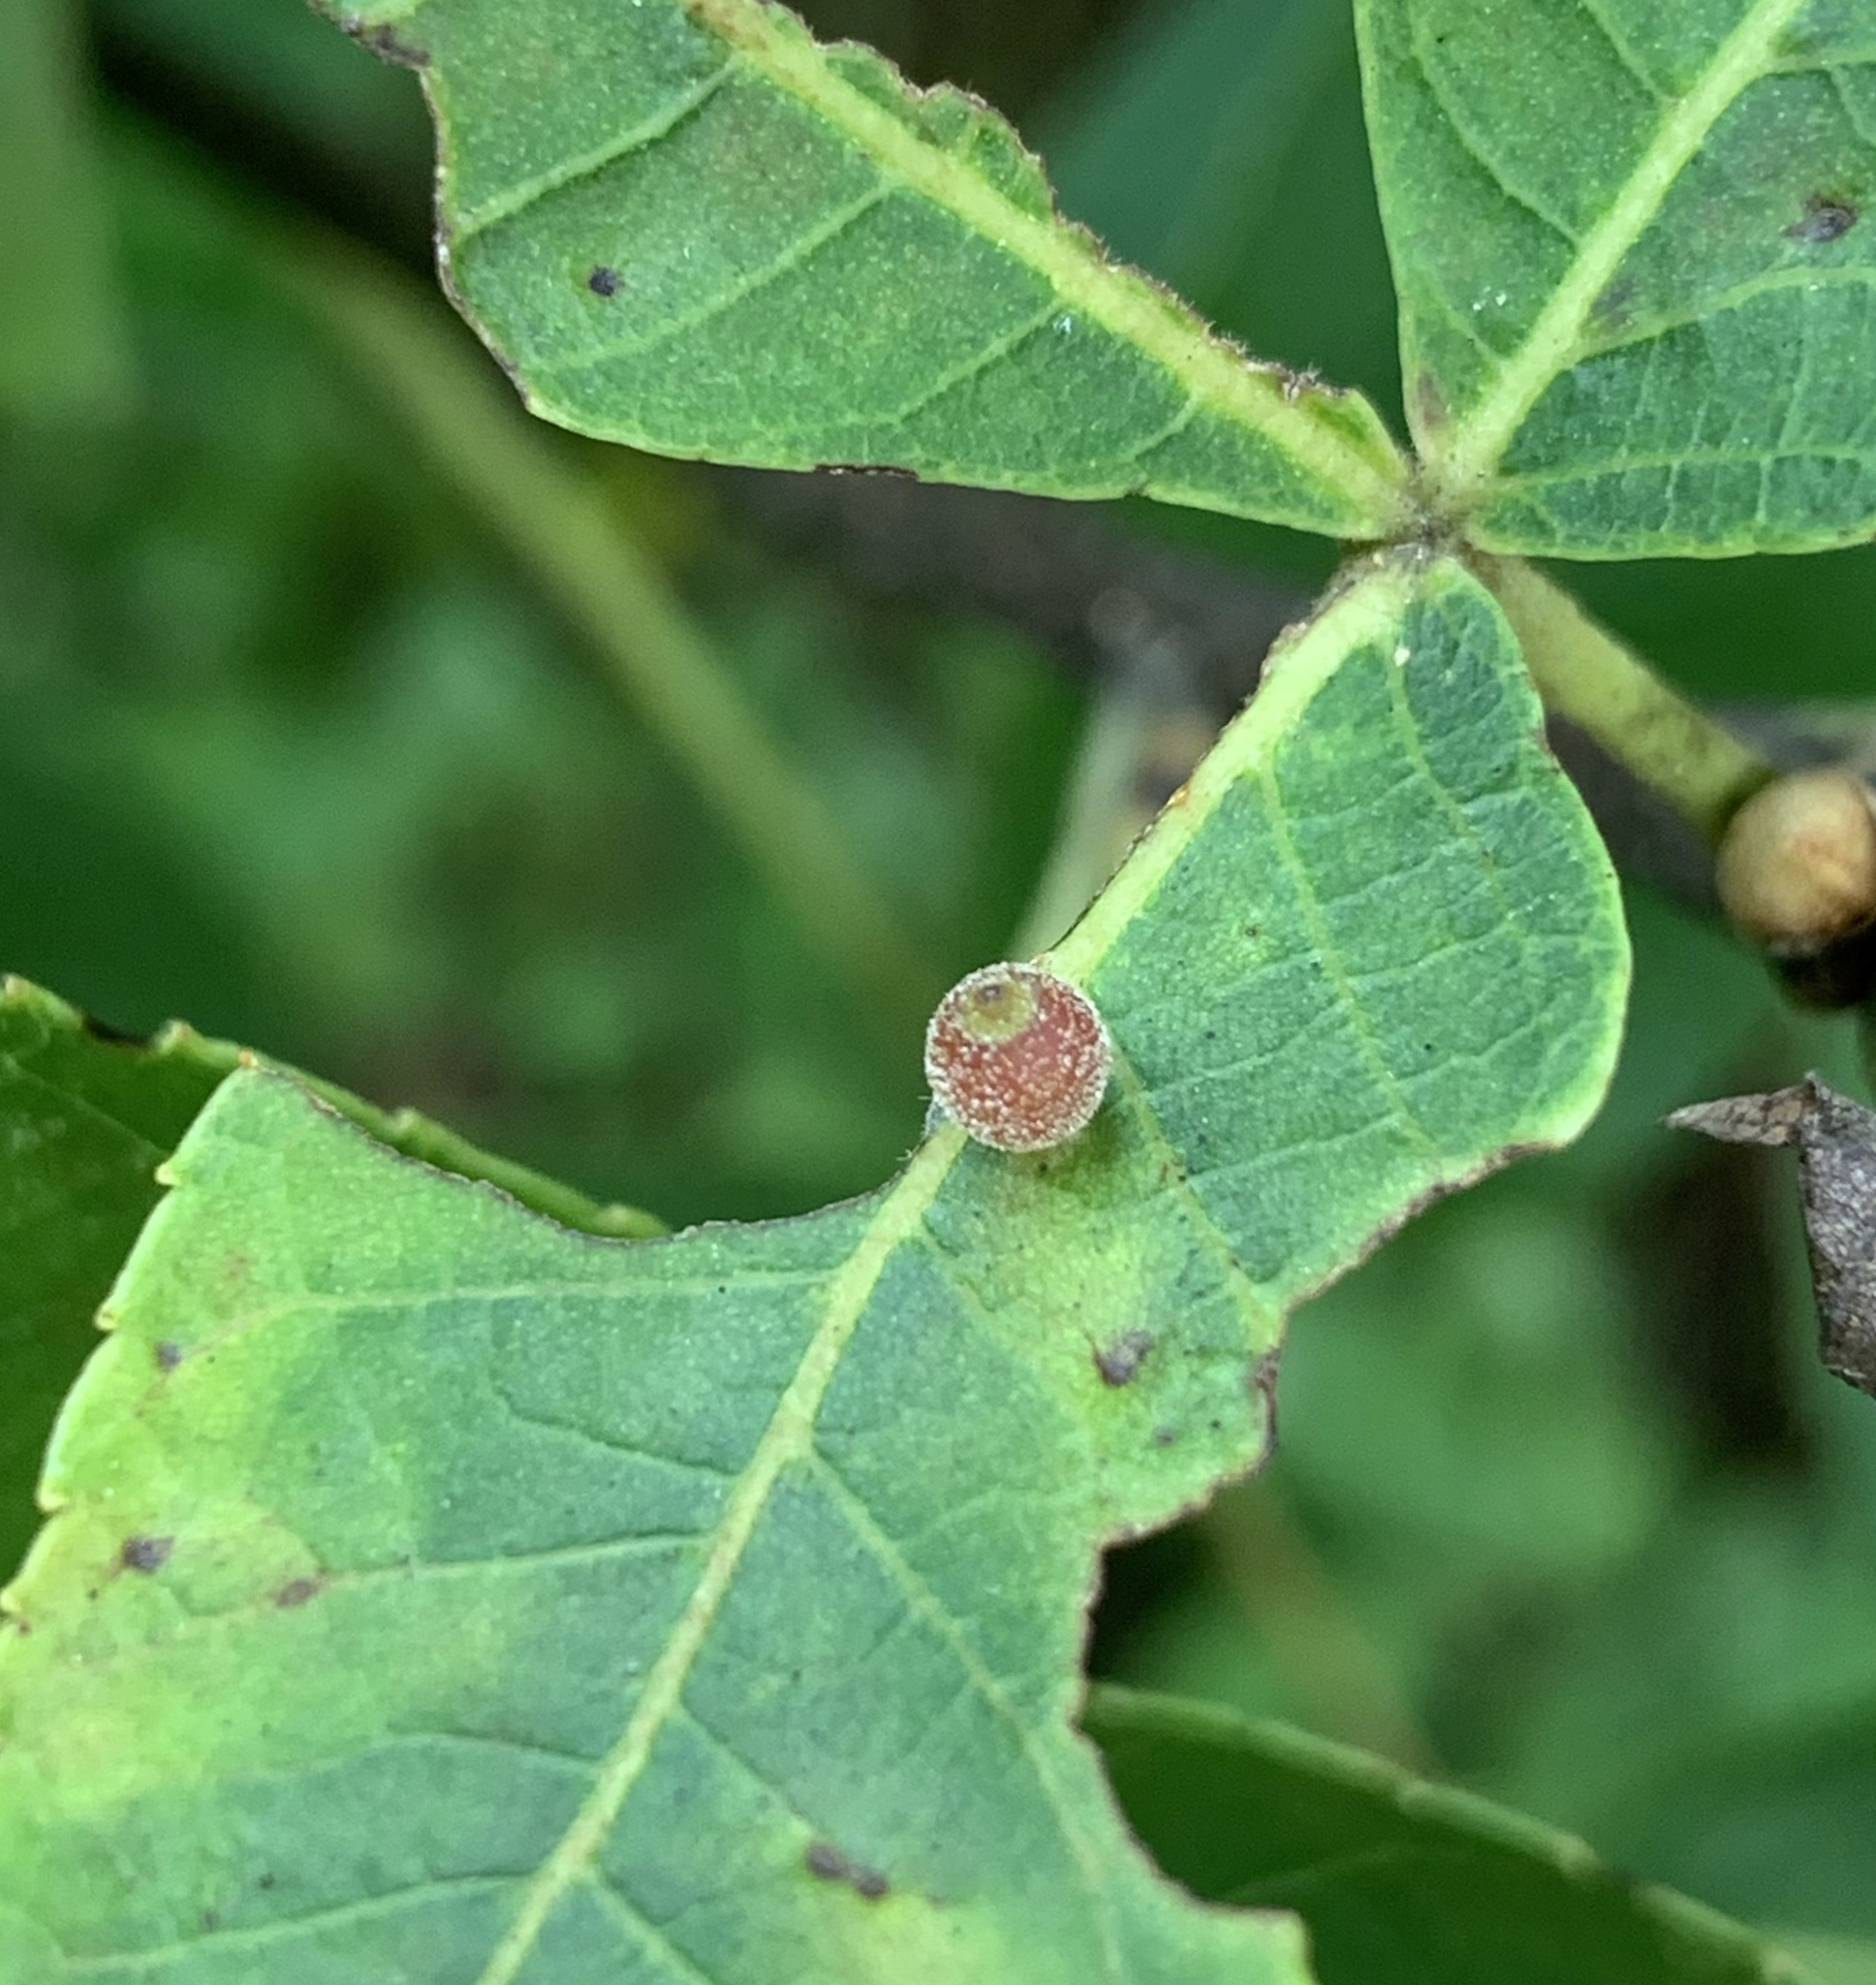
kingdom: Animalia
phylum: Arthropoda
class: Insecta
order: Diptera
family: Cecidomyiidae
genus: Caryomyia
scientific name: Caryomyia viscidolium
